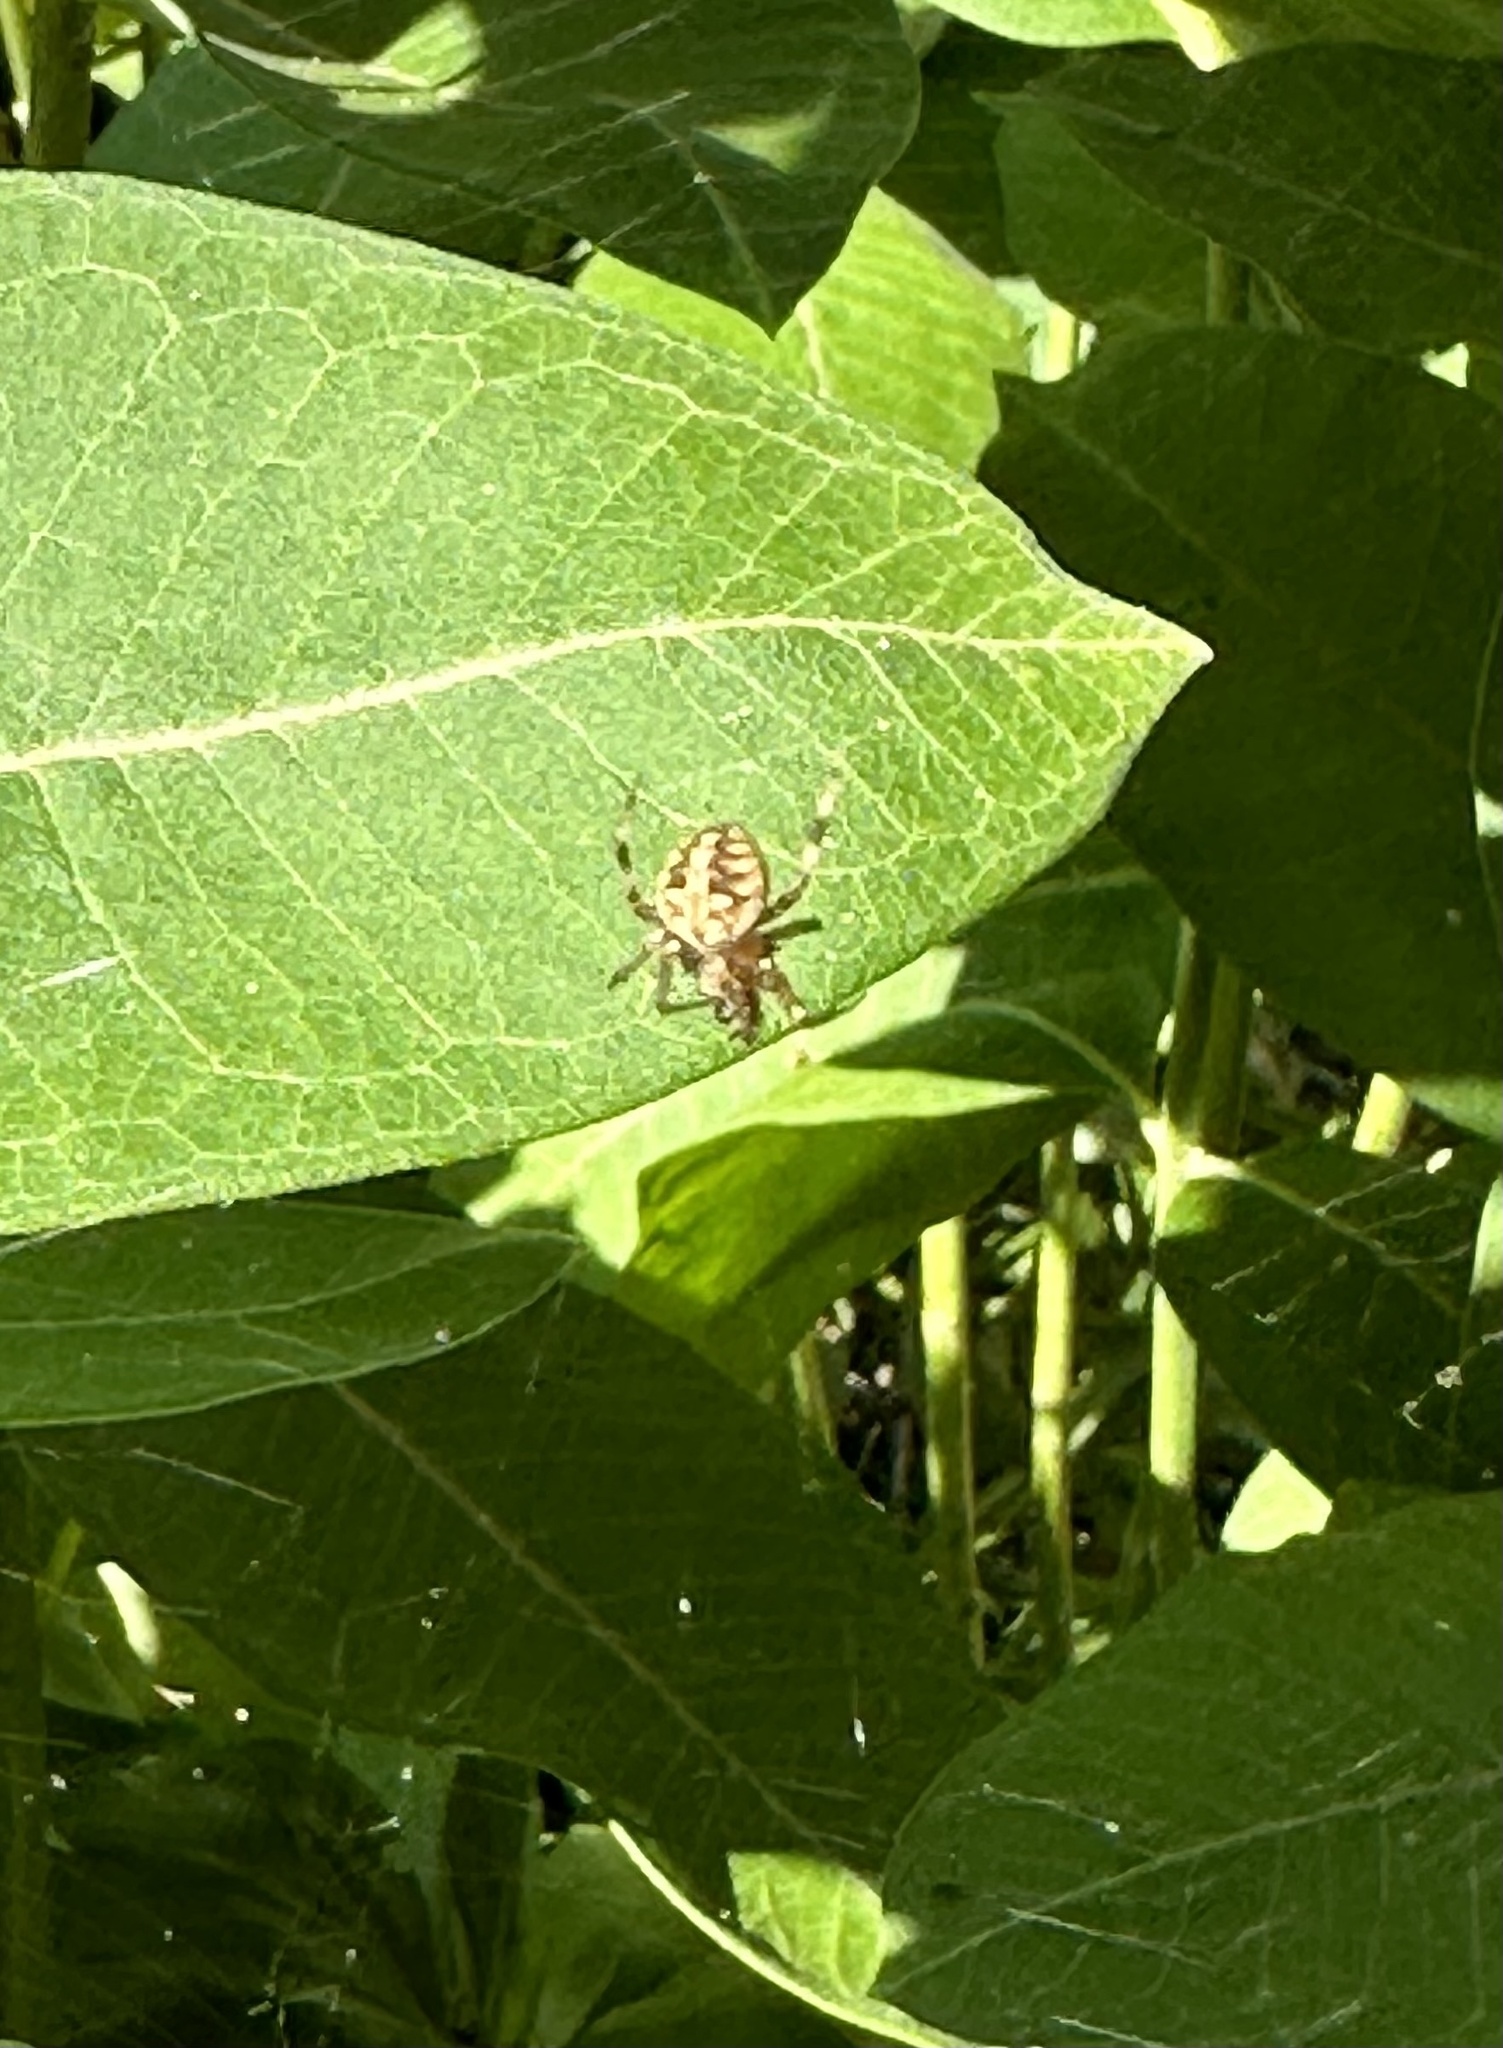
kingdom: Animalia
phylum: Arthropoda
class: Arachnida
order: Araneae
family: Araneidae
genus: Neoscona
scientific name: Neoscona arabesca
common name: Orb weavers
